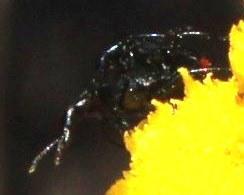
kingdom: Animalia
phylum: Arthropoda
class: Insecta
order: Coleoptera
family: Melyridae
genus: Pagurodactylus
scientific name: Pagurodactylus
